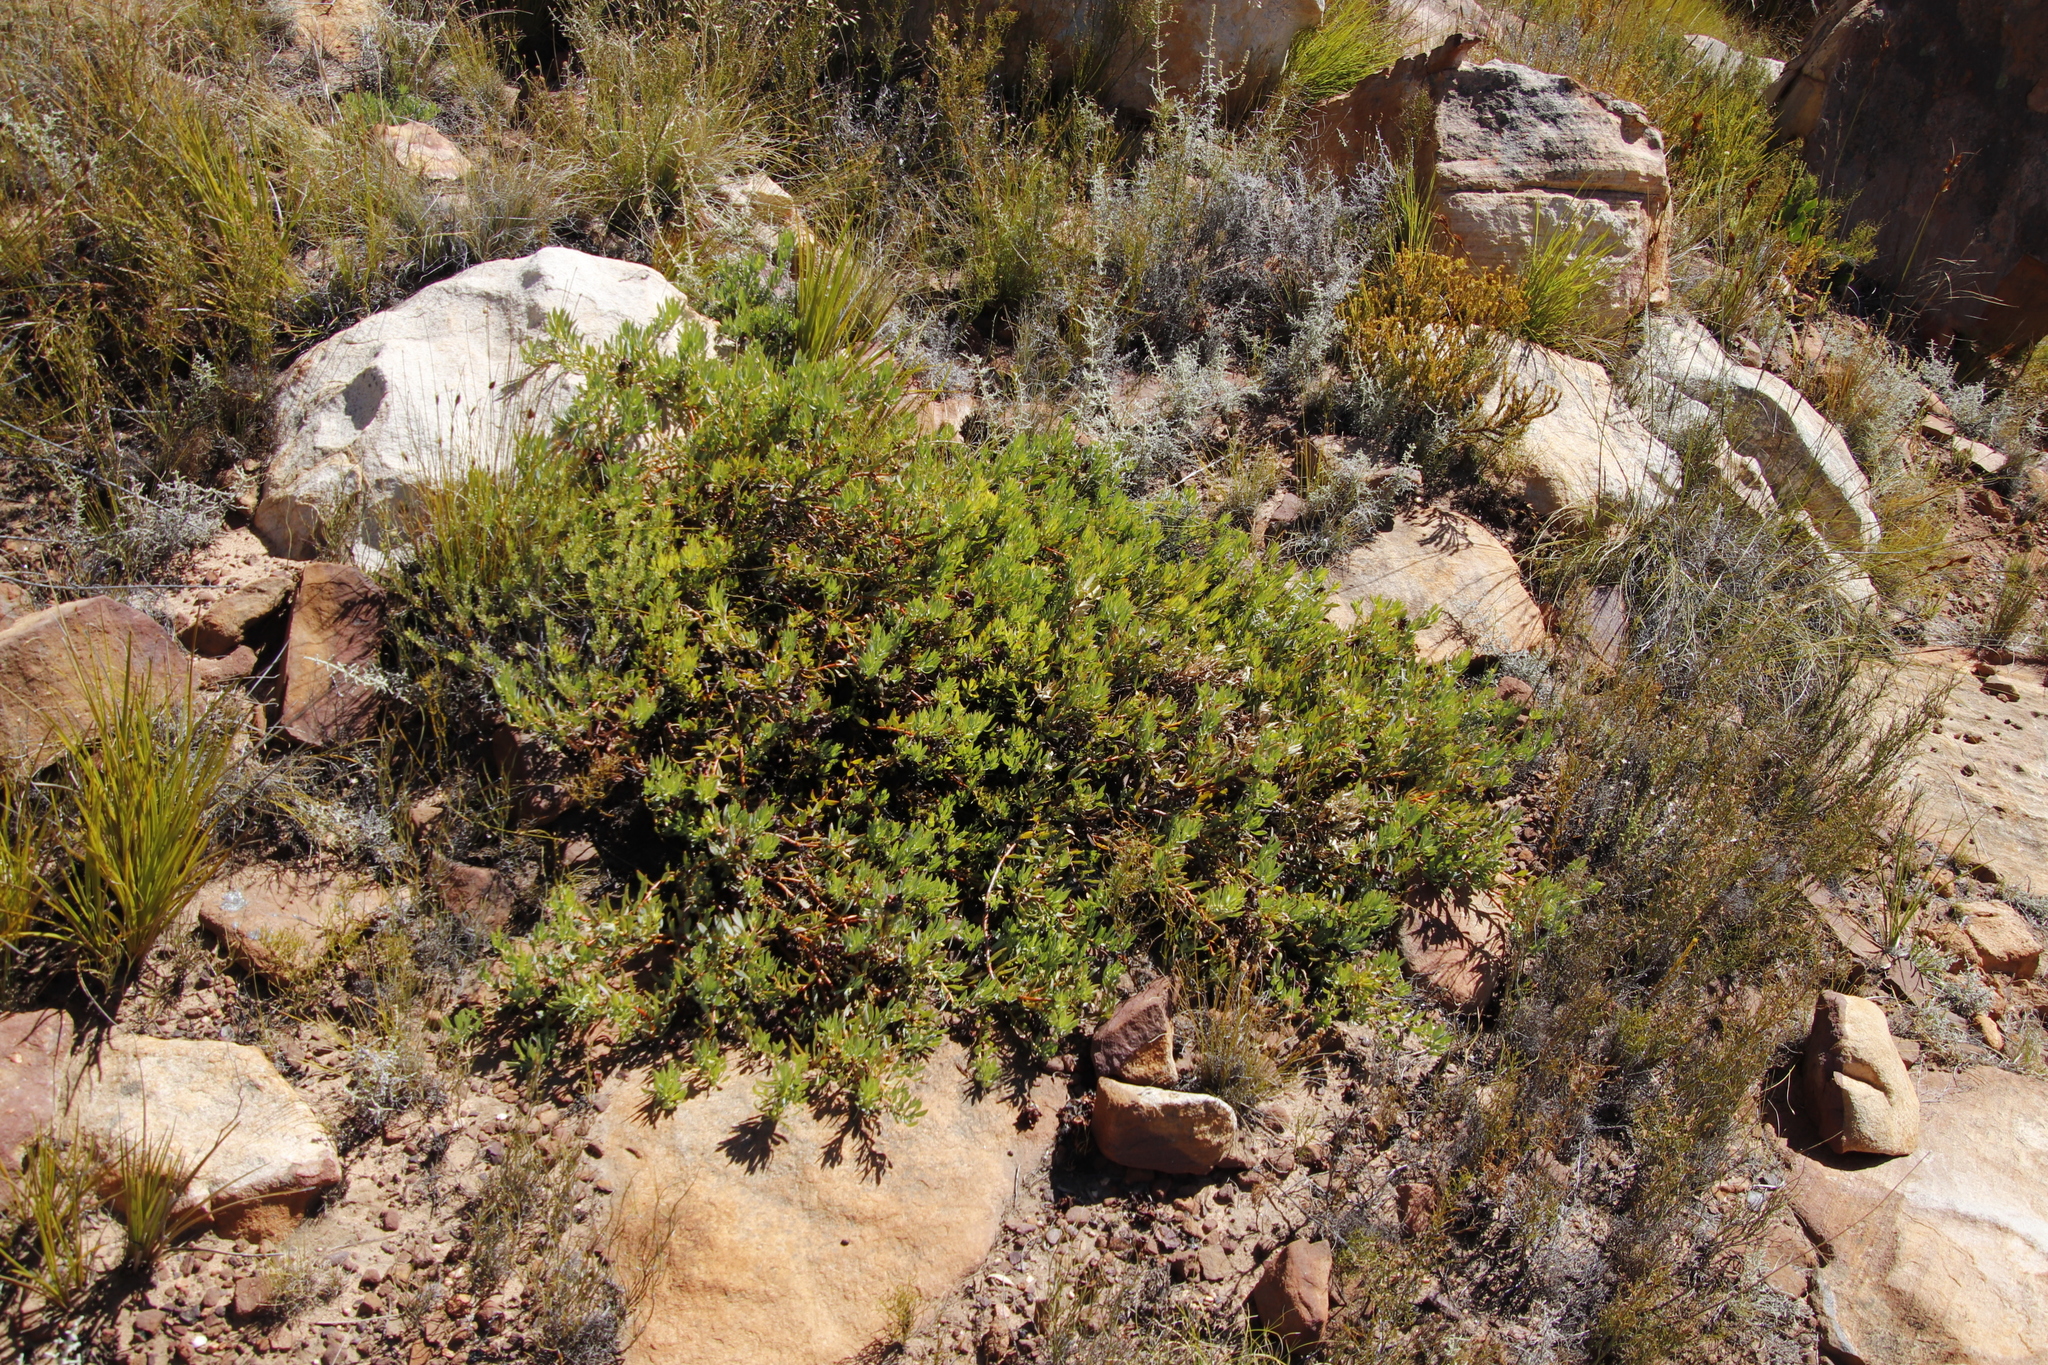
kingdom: Plantae
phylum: Tracheophyta
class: Magnoliopsida
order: Proteales
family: Proteaceae
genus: Leucadendron
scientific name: Leucadendron glaberrimum
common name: Common oily conebush
